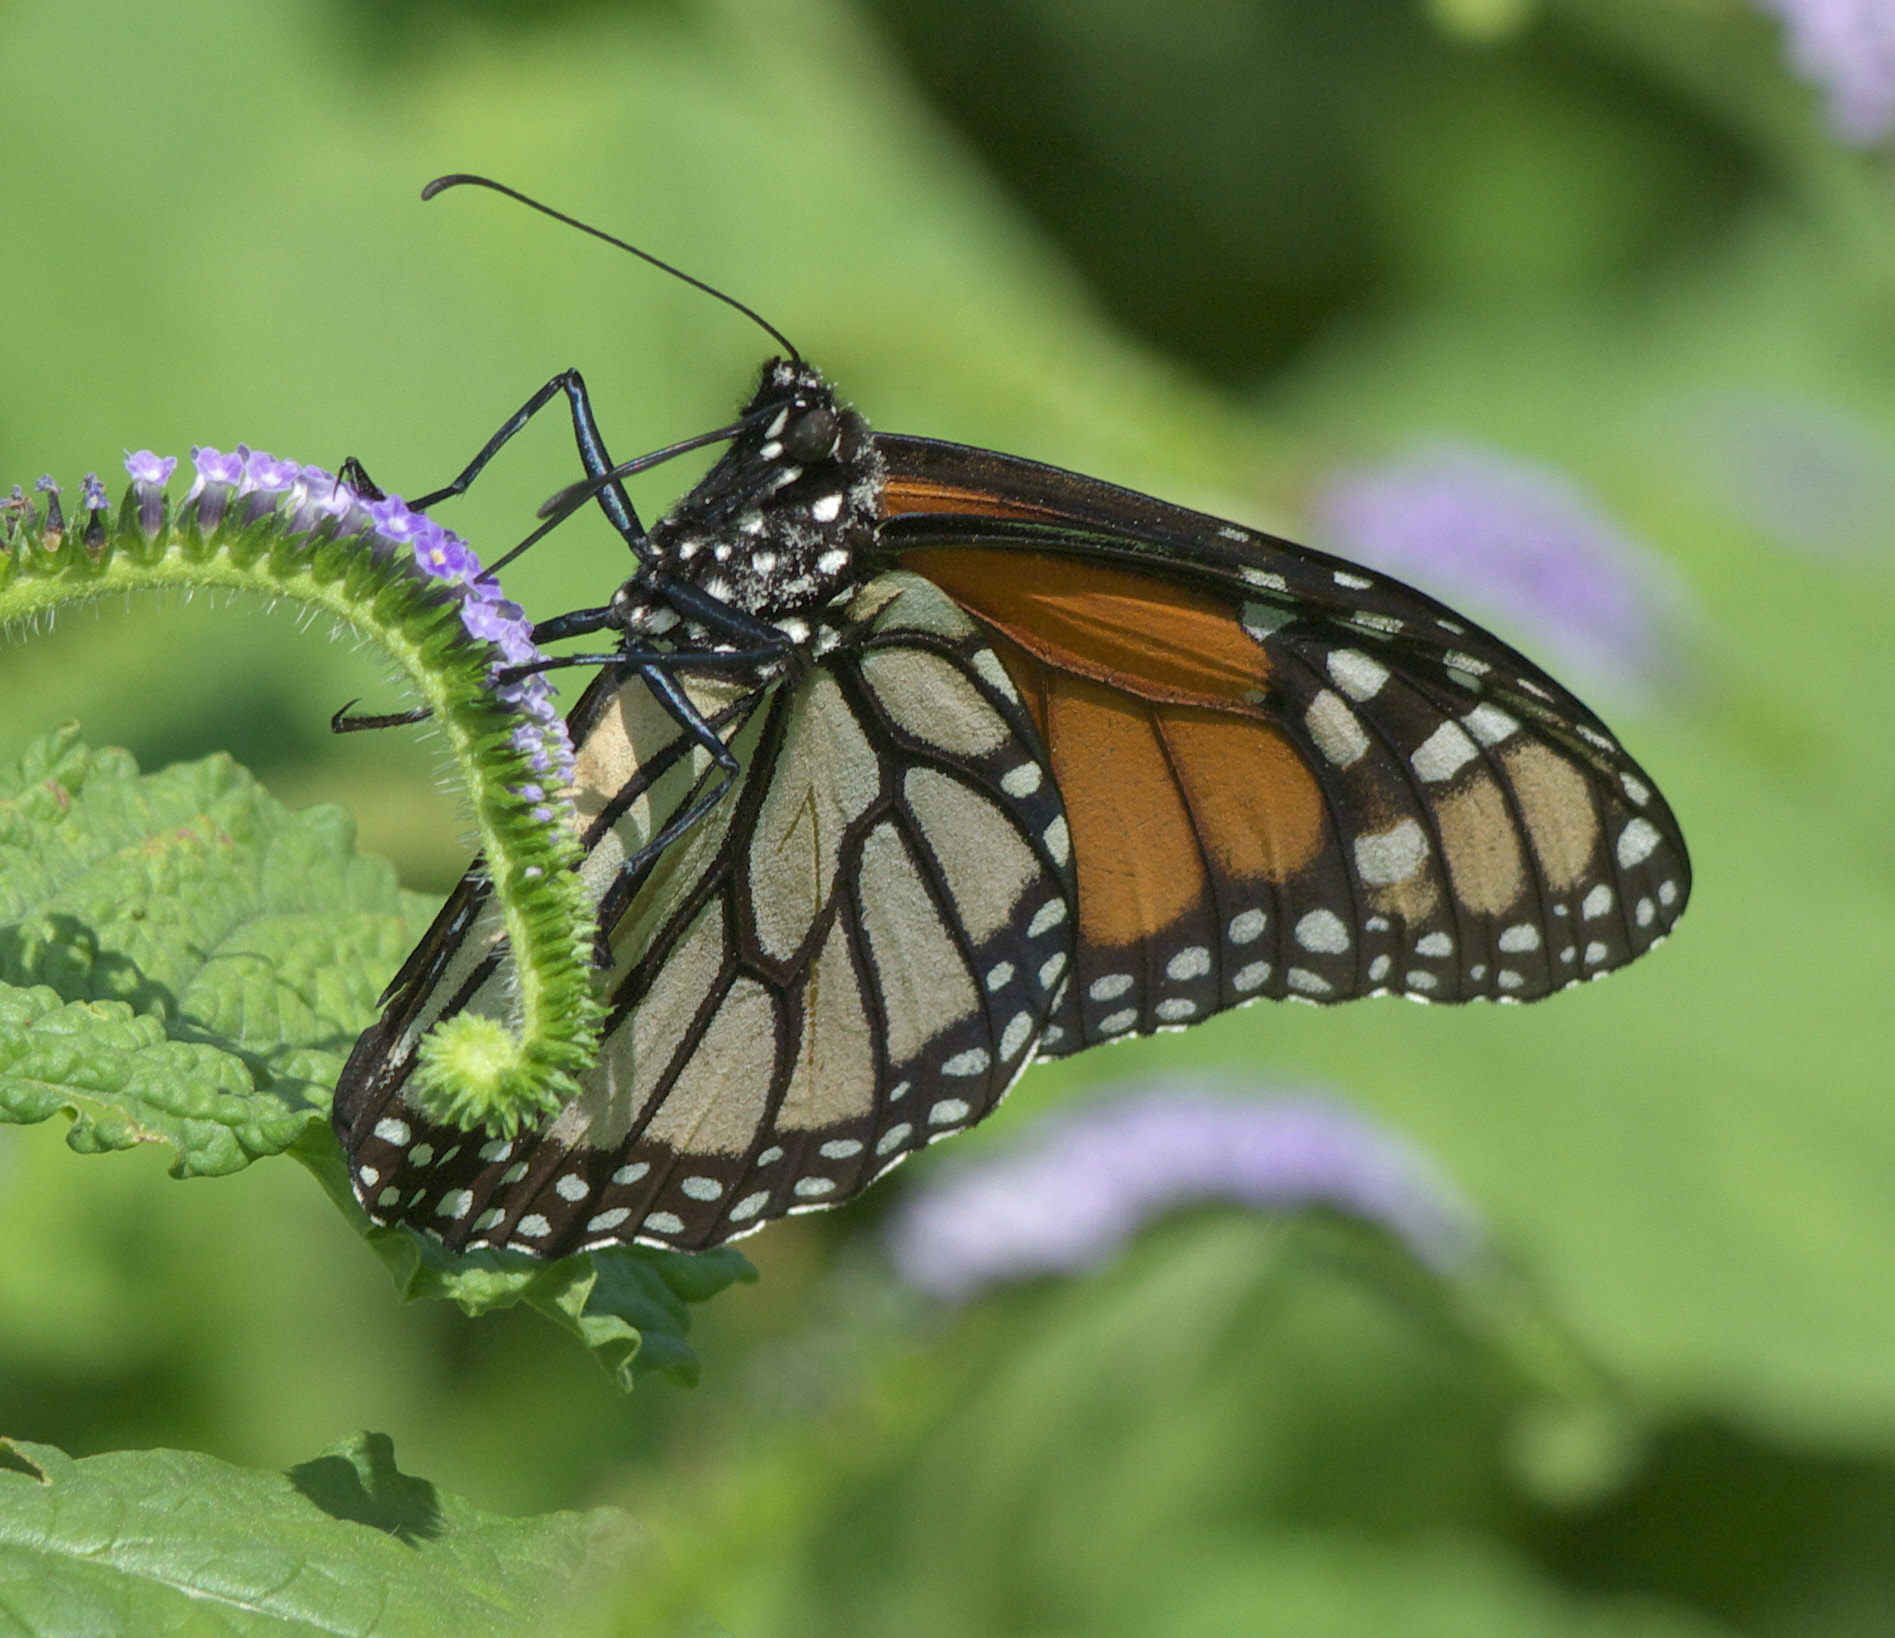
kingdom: Animalia
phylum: Arthropoda
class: Insecta
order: Lepidoptera
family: Nymphalidae
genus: Danaus
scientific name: Danaus plexippus
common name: Monarch
